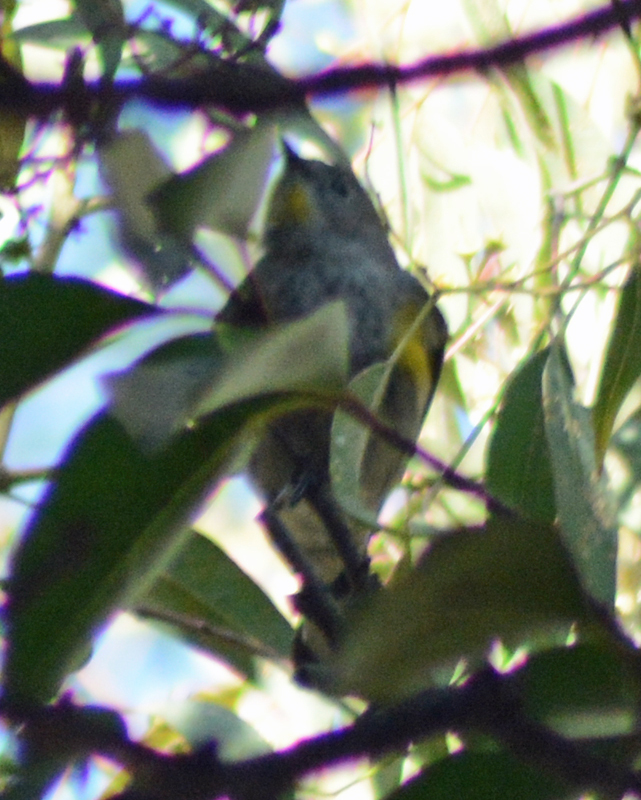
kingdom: Animalia
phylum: Chordata
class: Aves
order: Passeriformes
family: Parulidae
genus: Setophaga
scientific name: Setophaga coronata
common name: Myrtle warbler
